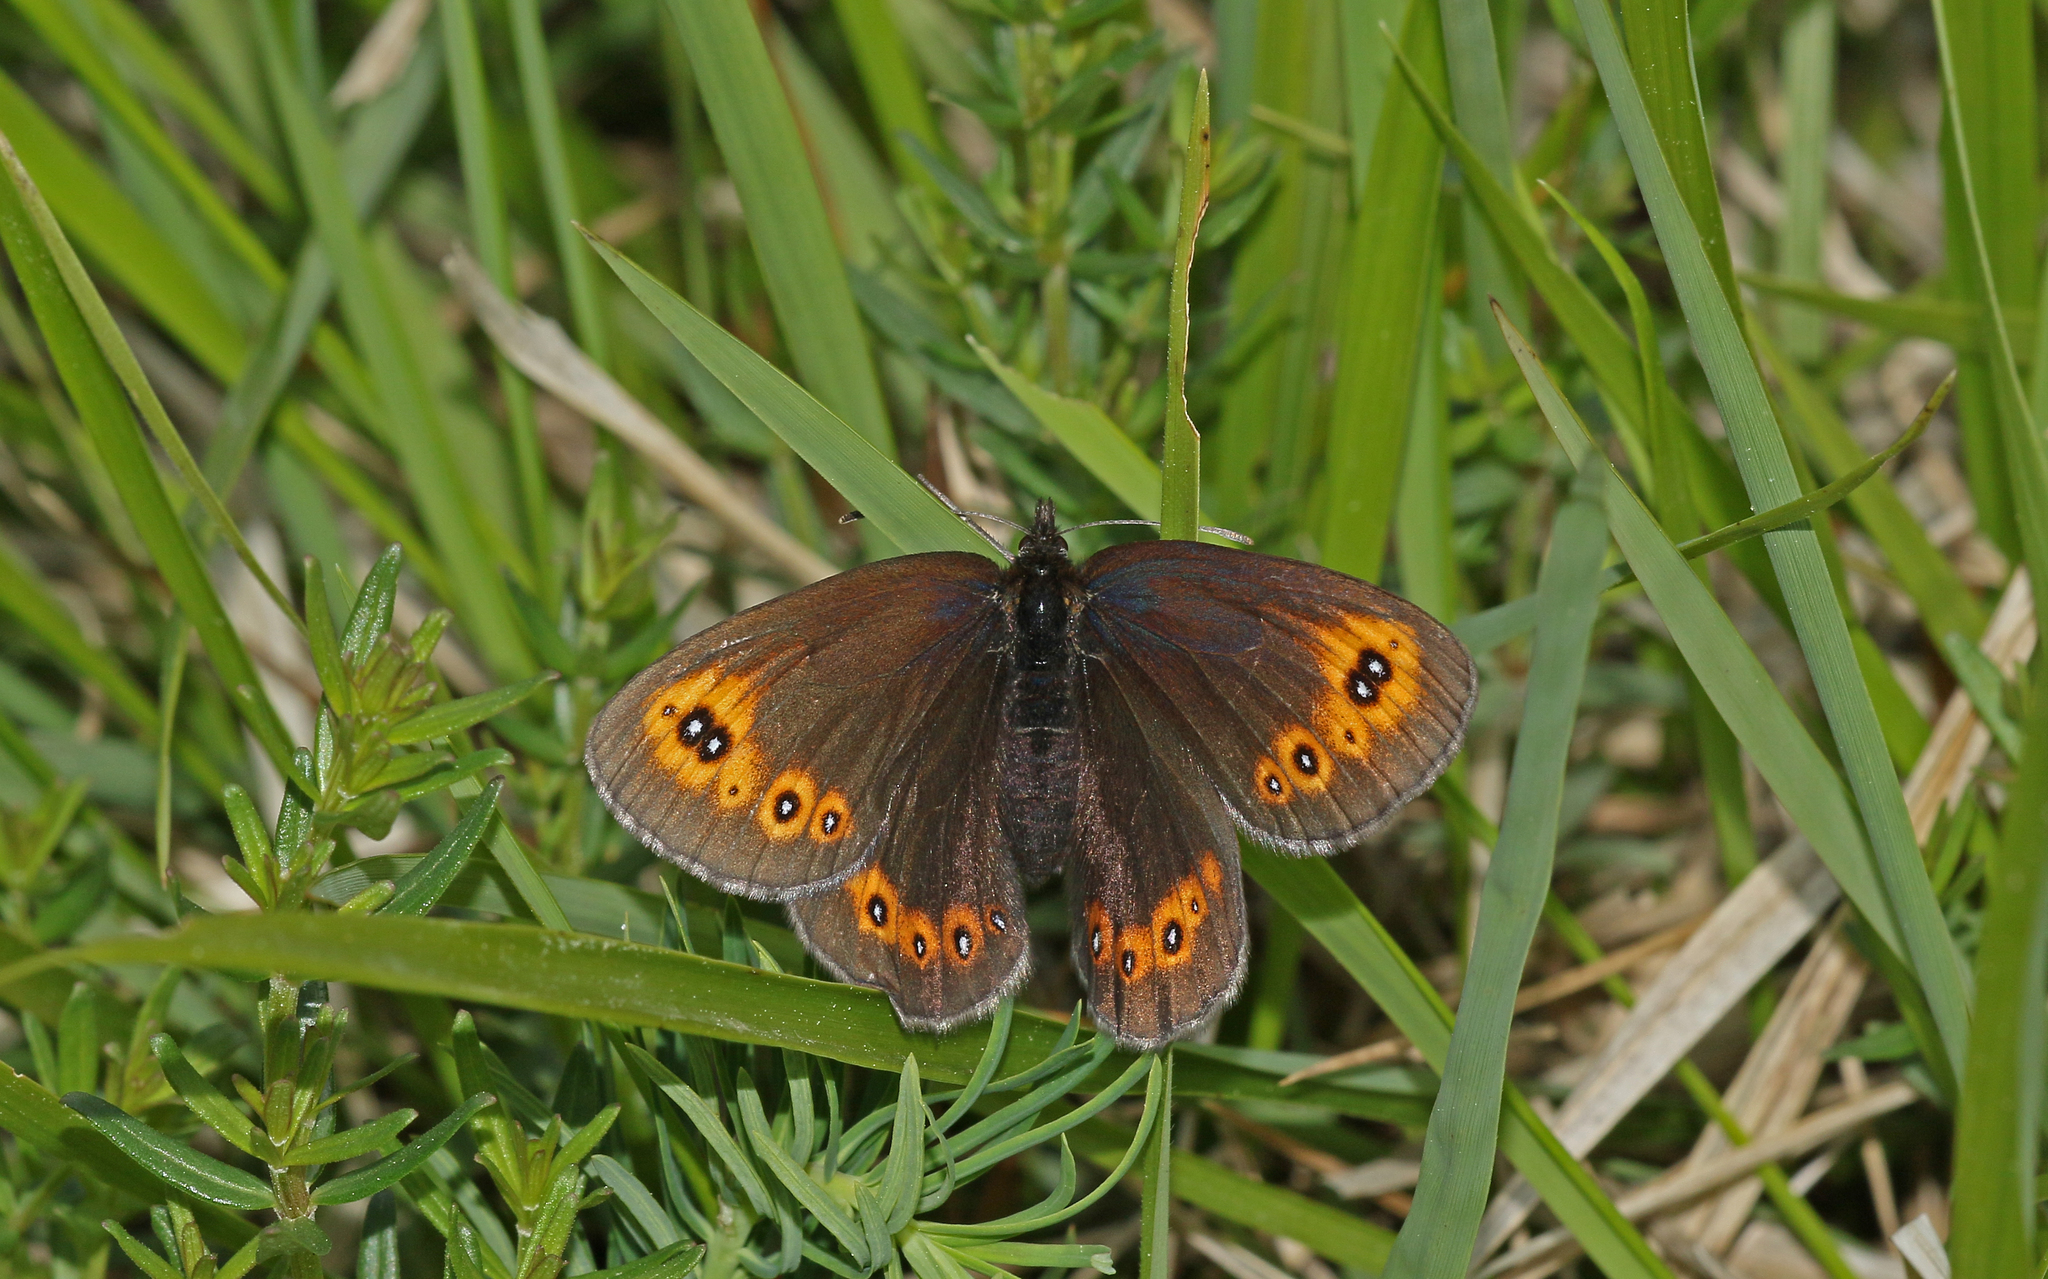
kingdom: Animalia
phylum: Arthropoda
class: Insecta
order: Lepidoptera
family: Nymphalidae
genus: Erebia
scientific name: Erebia medusa
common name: Woodland ringlet
